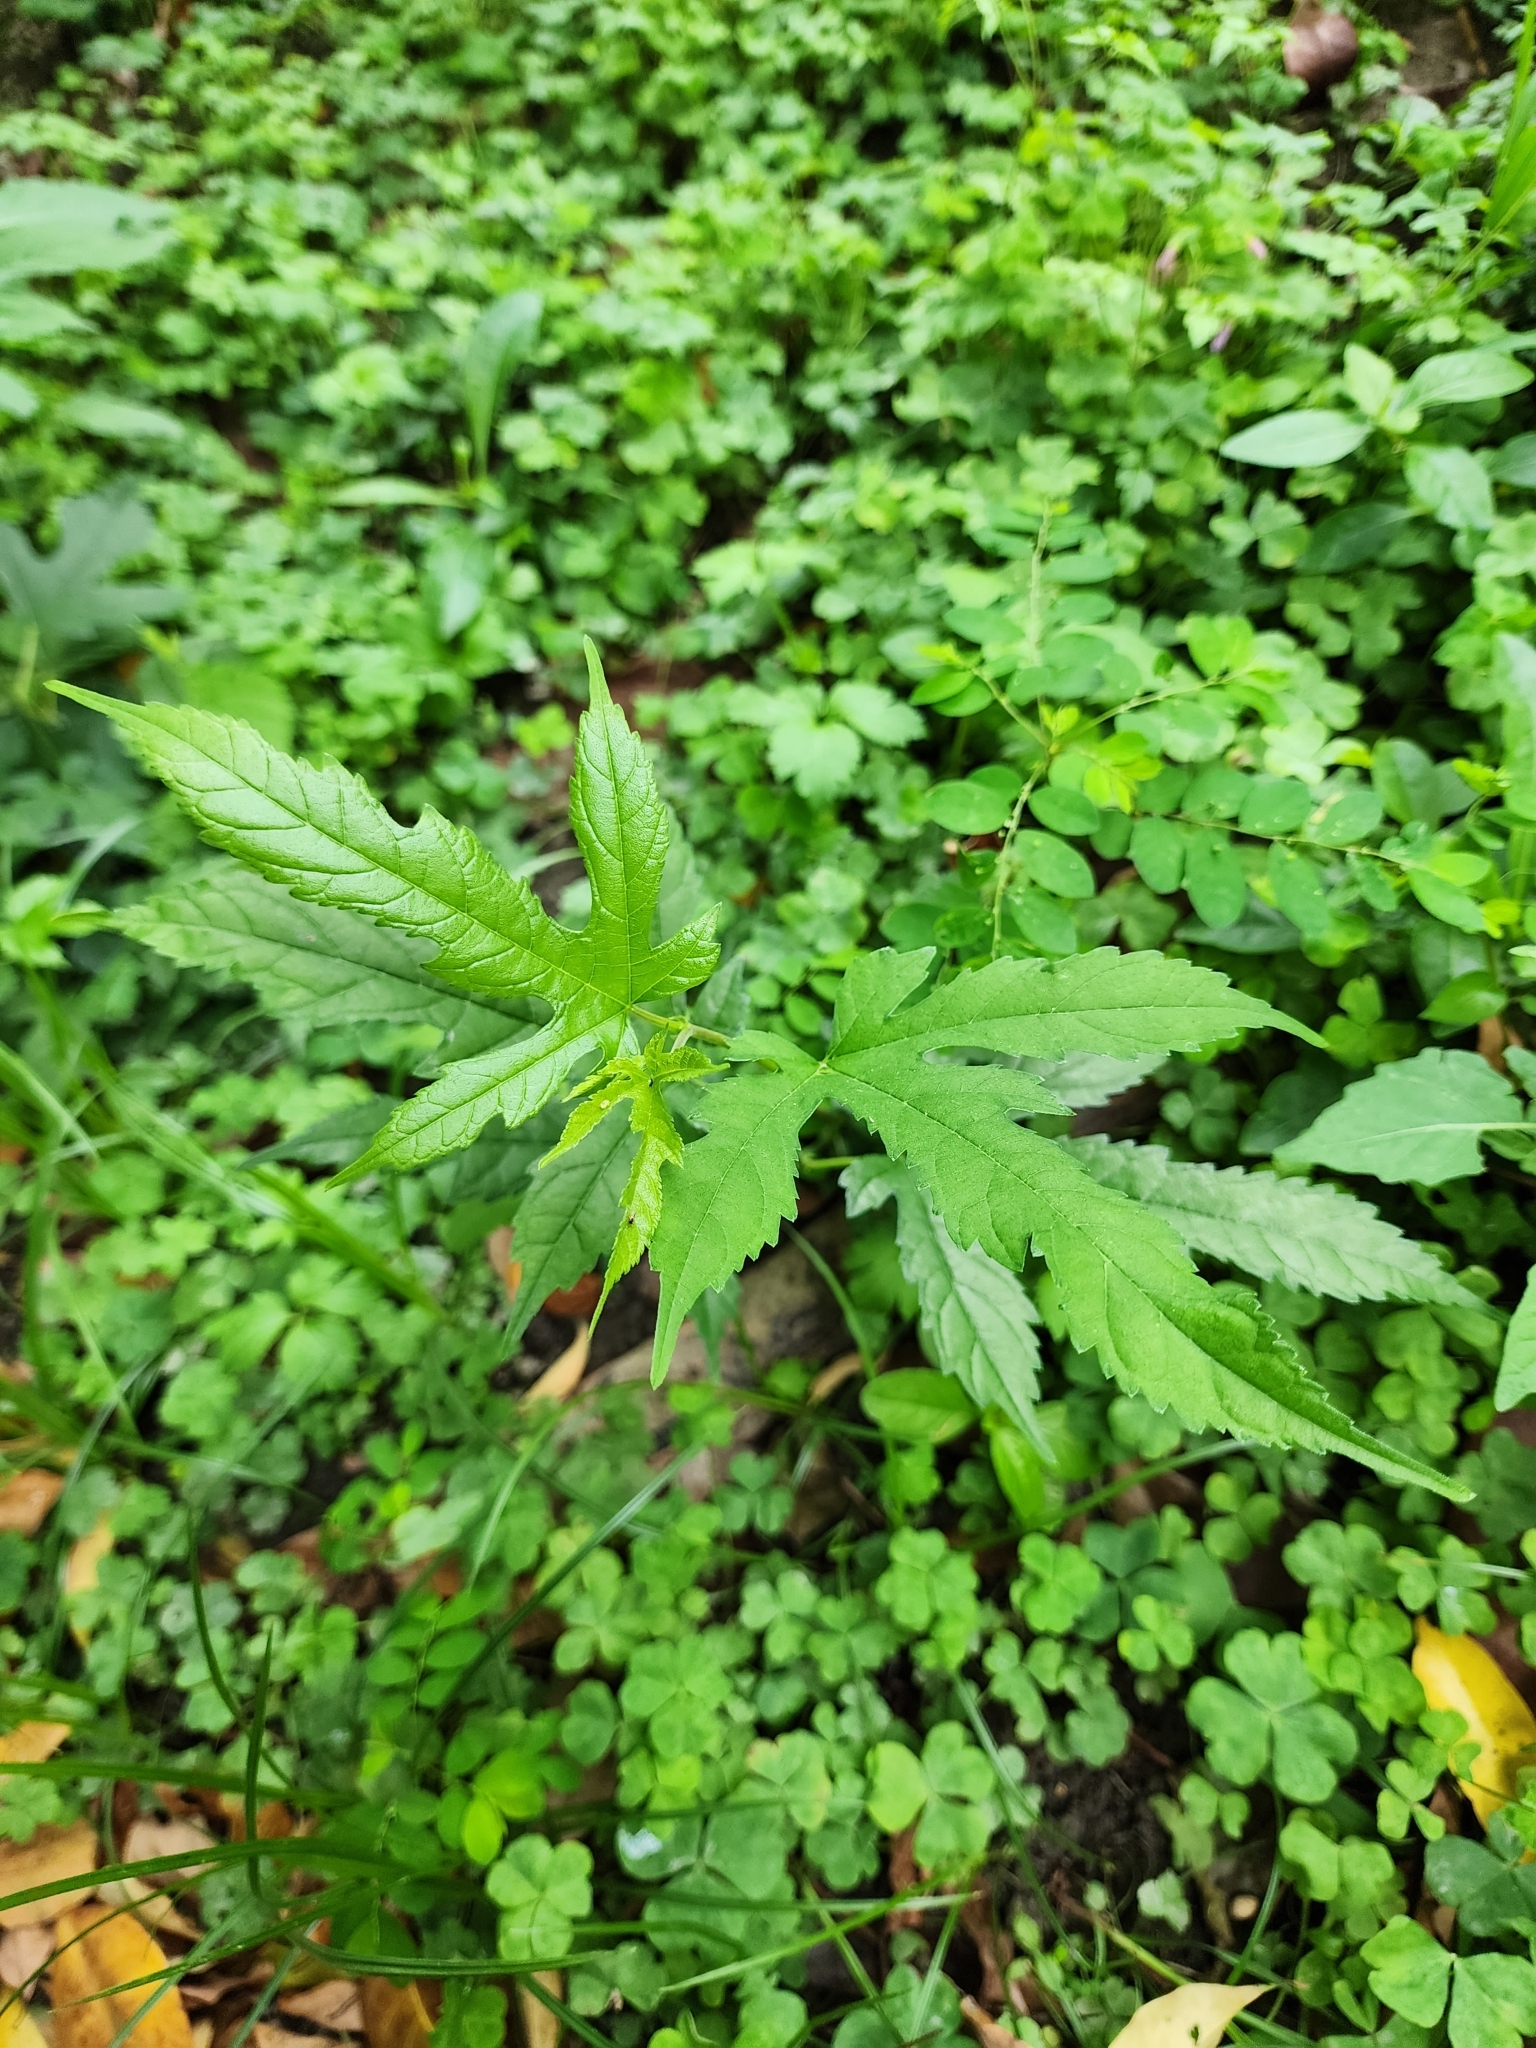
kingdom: Plantae
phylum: Tracheophyta
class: Magnoliopsida
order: Rosales
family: Moraceae
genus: Morus
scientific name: Morus indica
